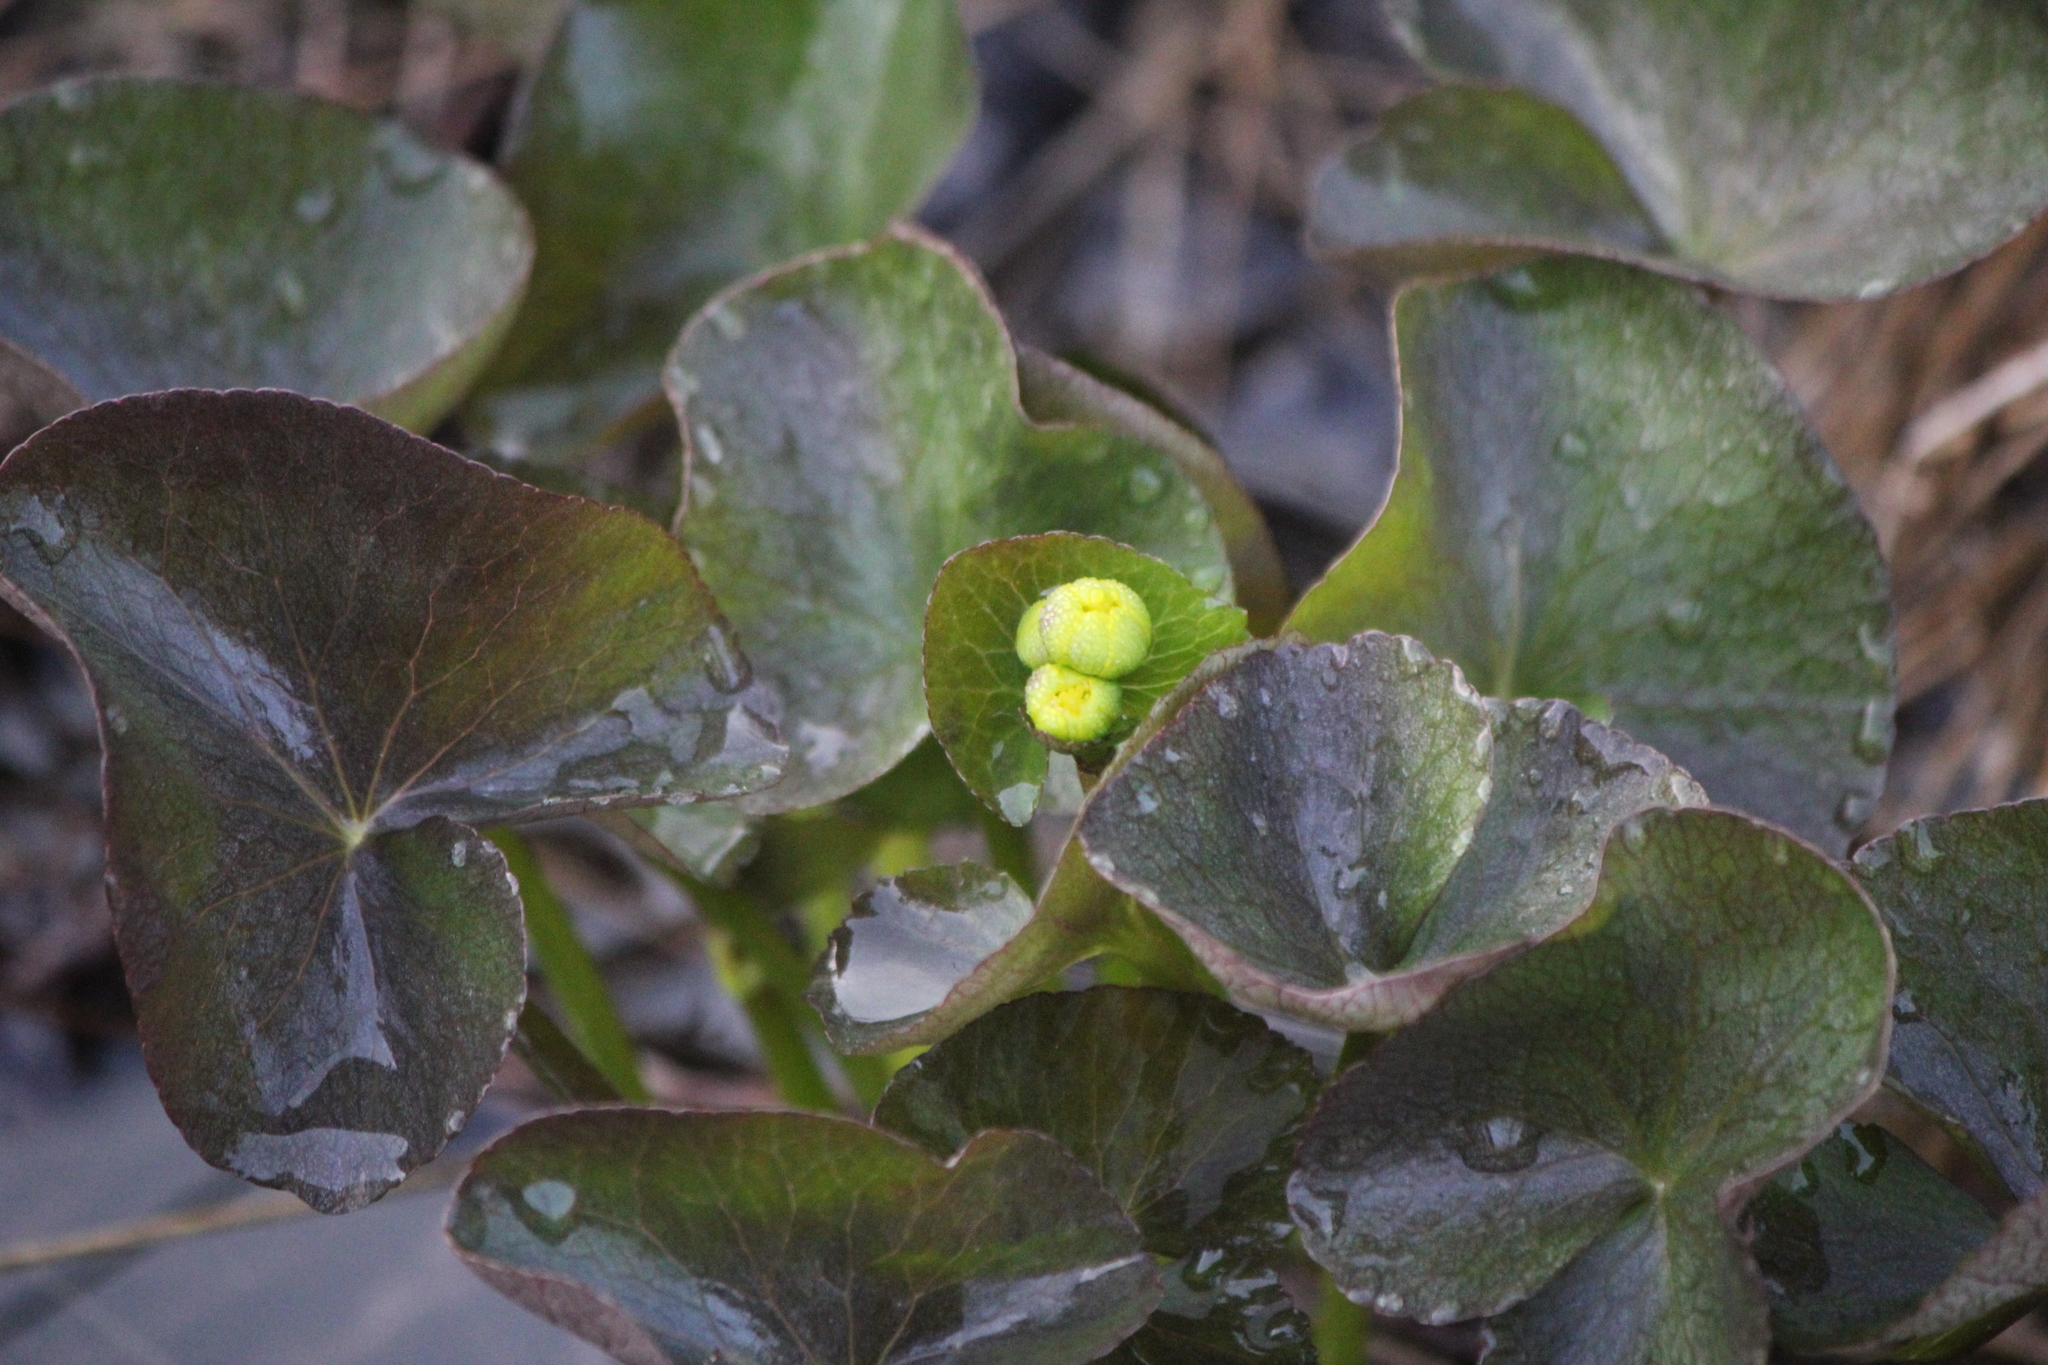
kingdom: Plantae
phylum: Tracheophyta
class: Magnoliopsida
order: Ranunculales
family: Ranunculaceae
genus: Caltha
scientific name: Caltha palustris
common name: Marsh marigold
